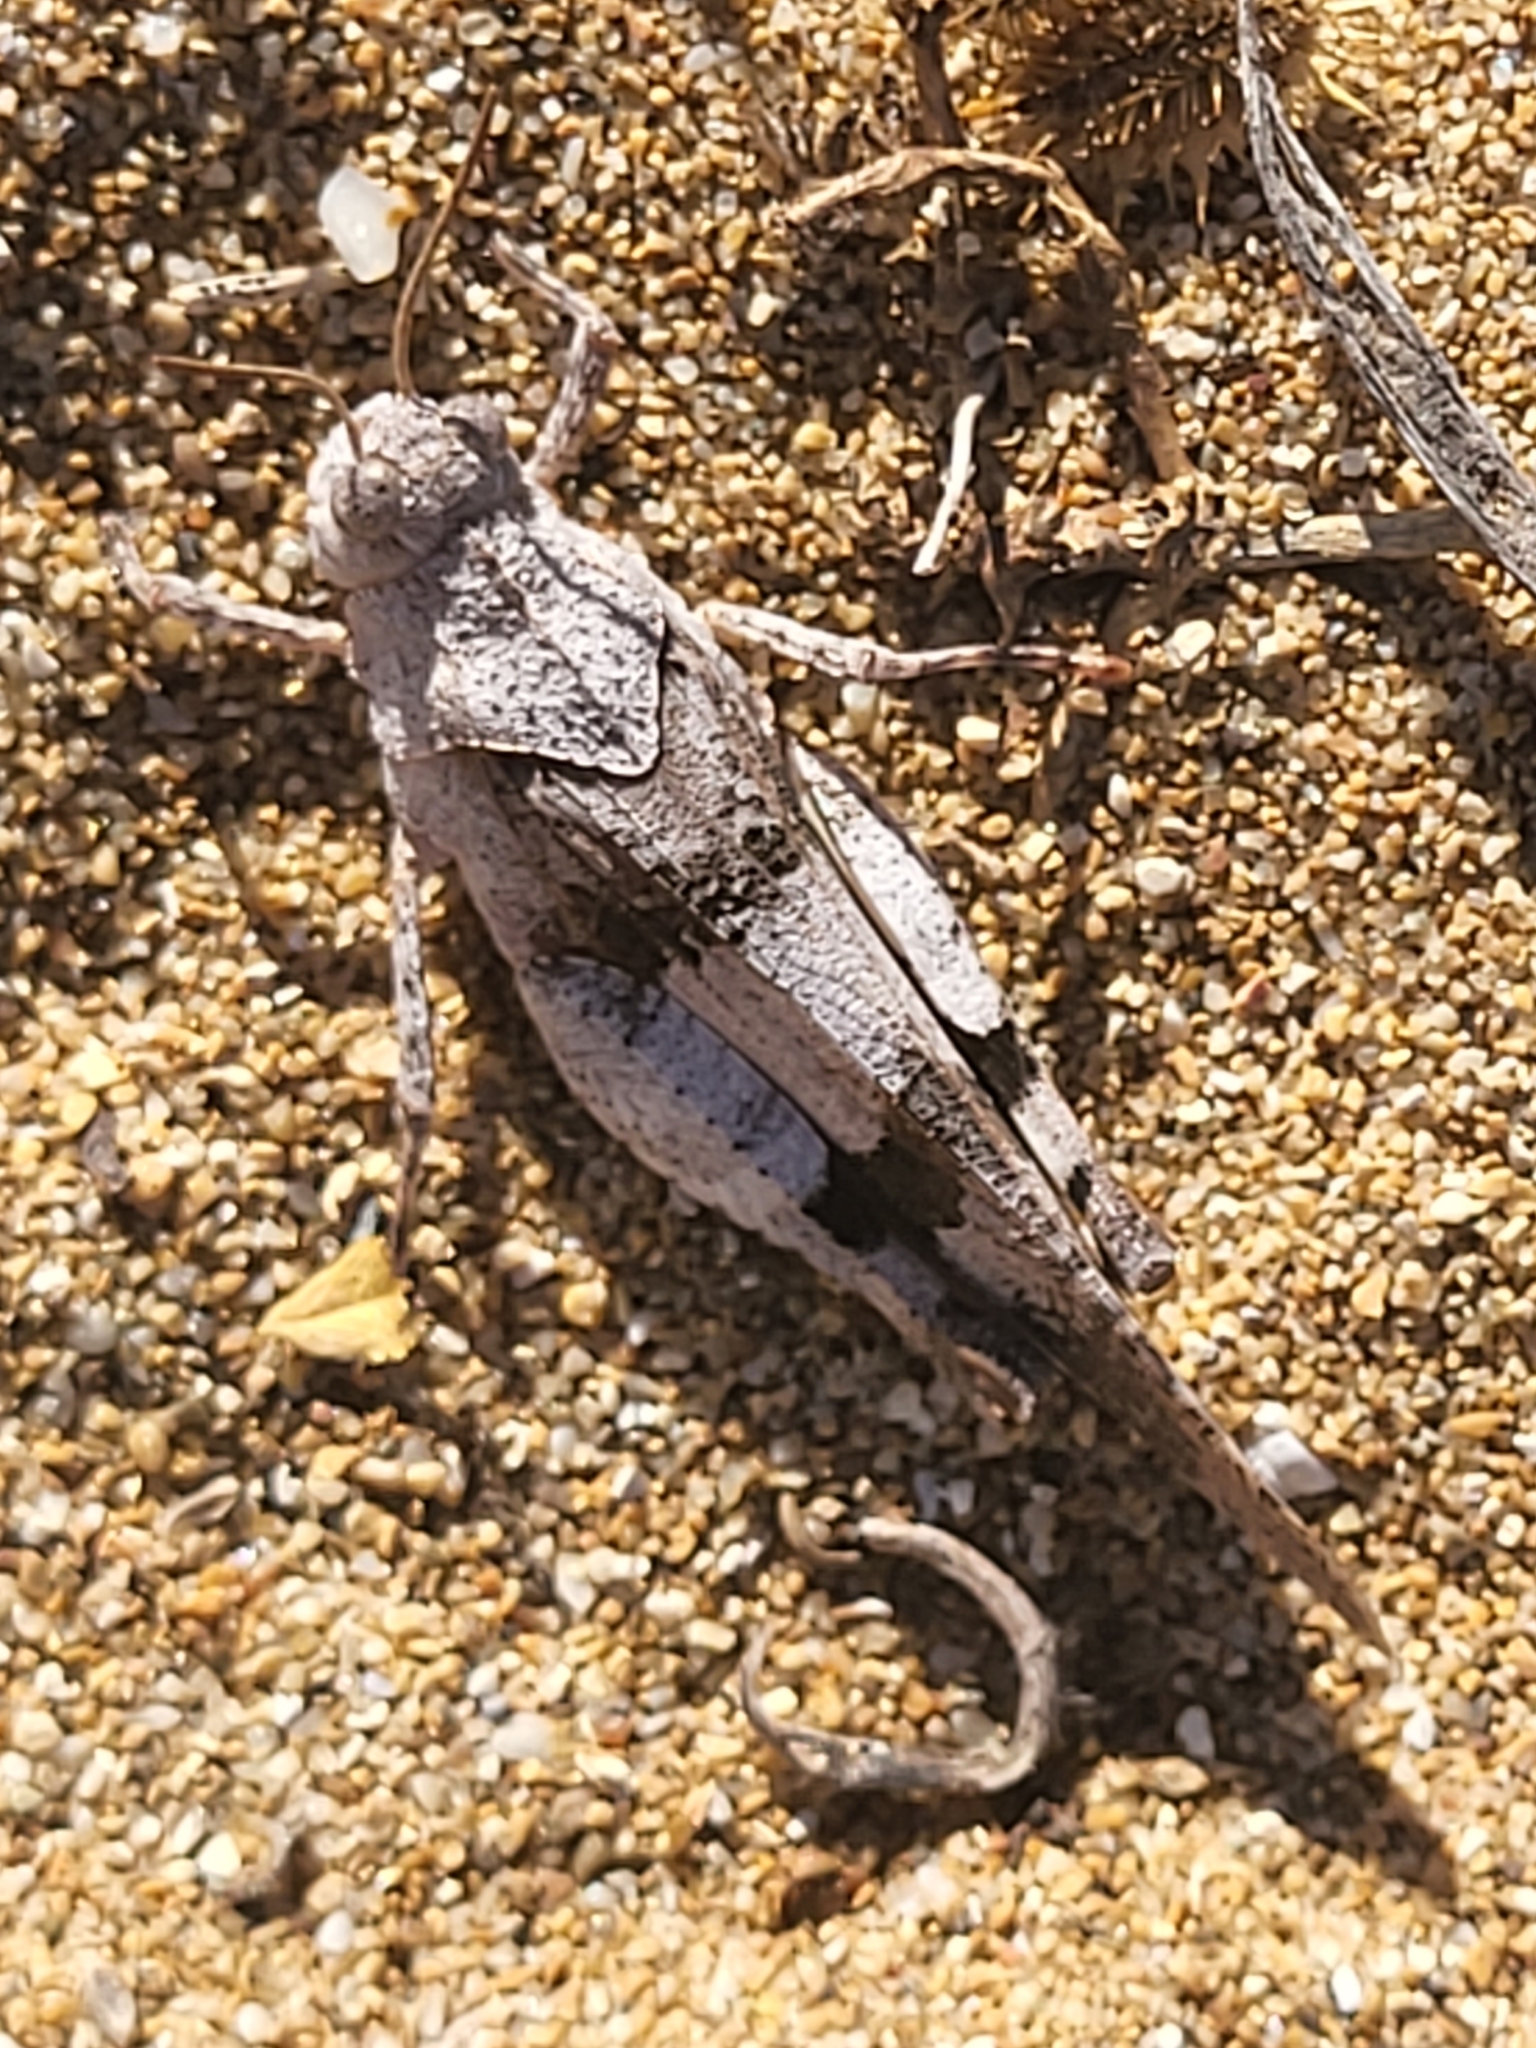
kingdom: Animalia
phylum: Arthropoda
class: Insecta
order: Orthoptera
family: Acrididae
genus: Oedipoda
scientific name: Oedipoda
